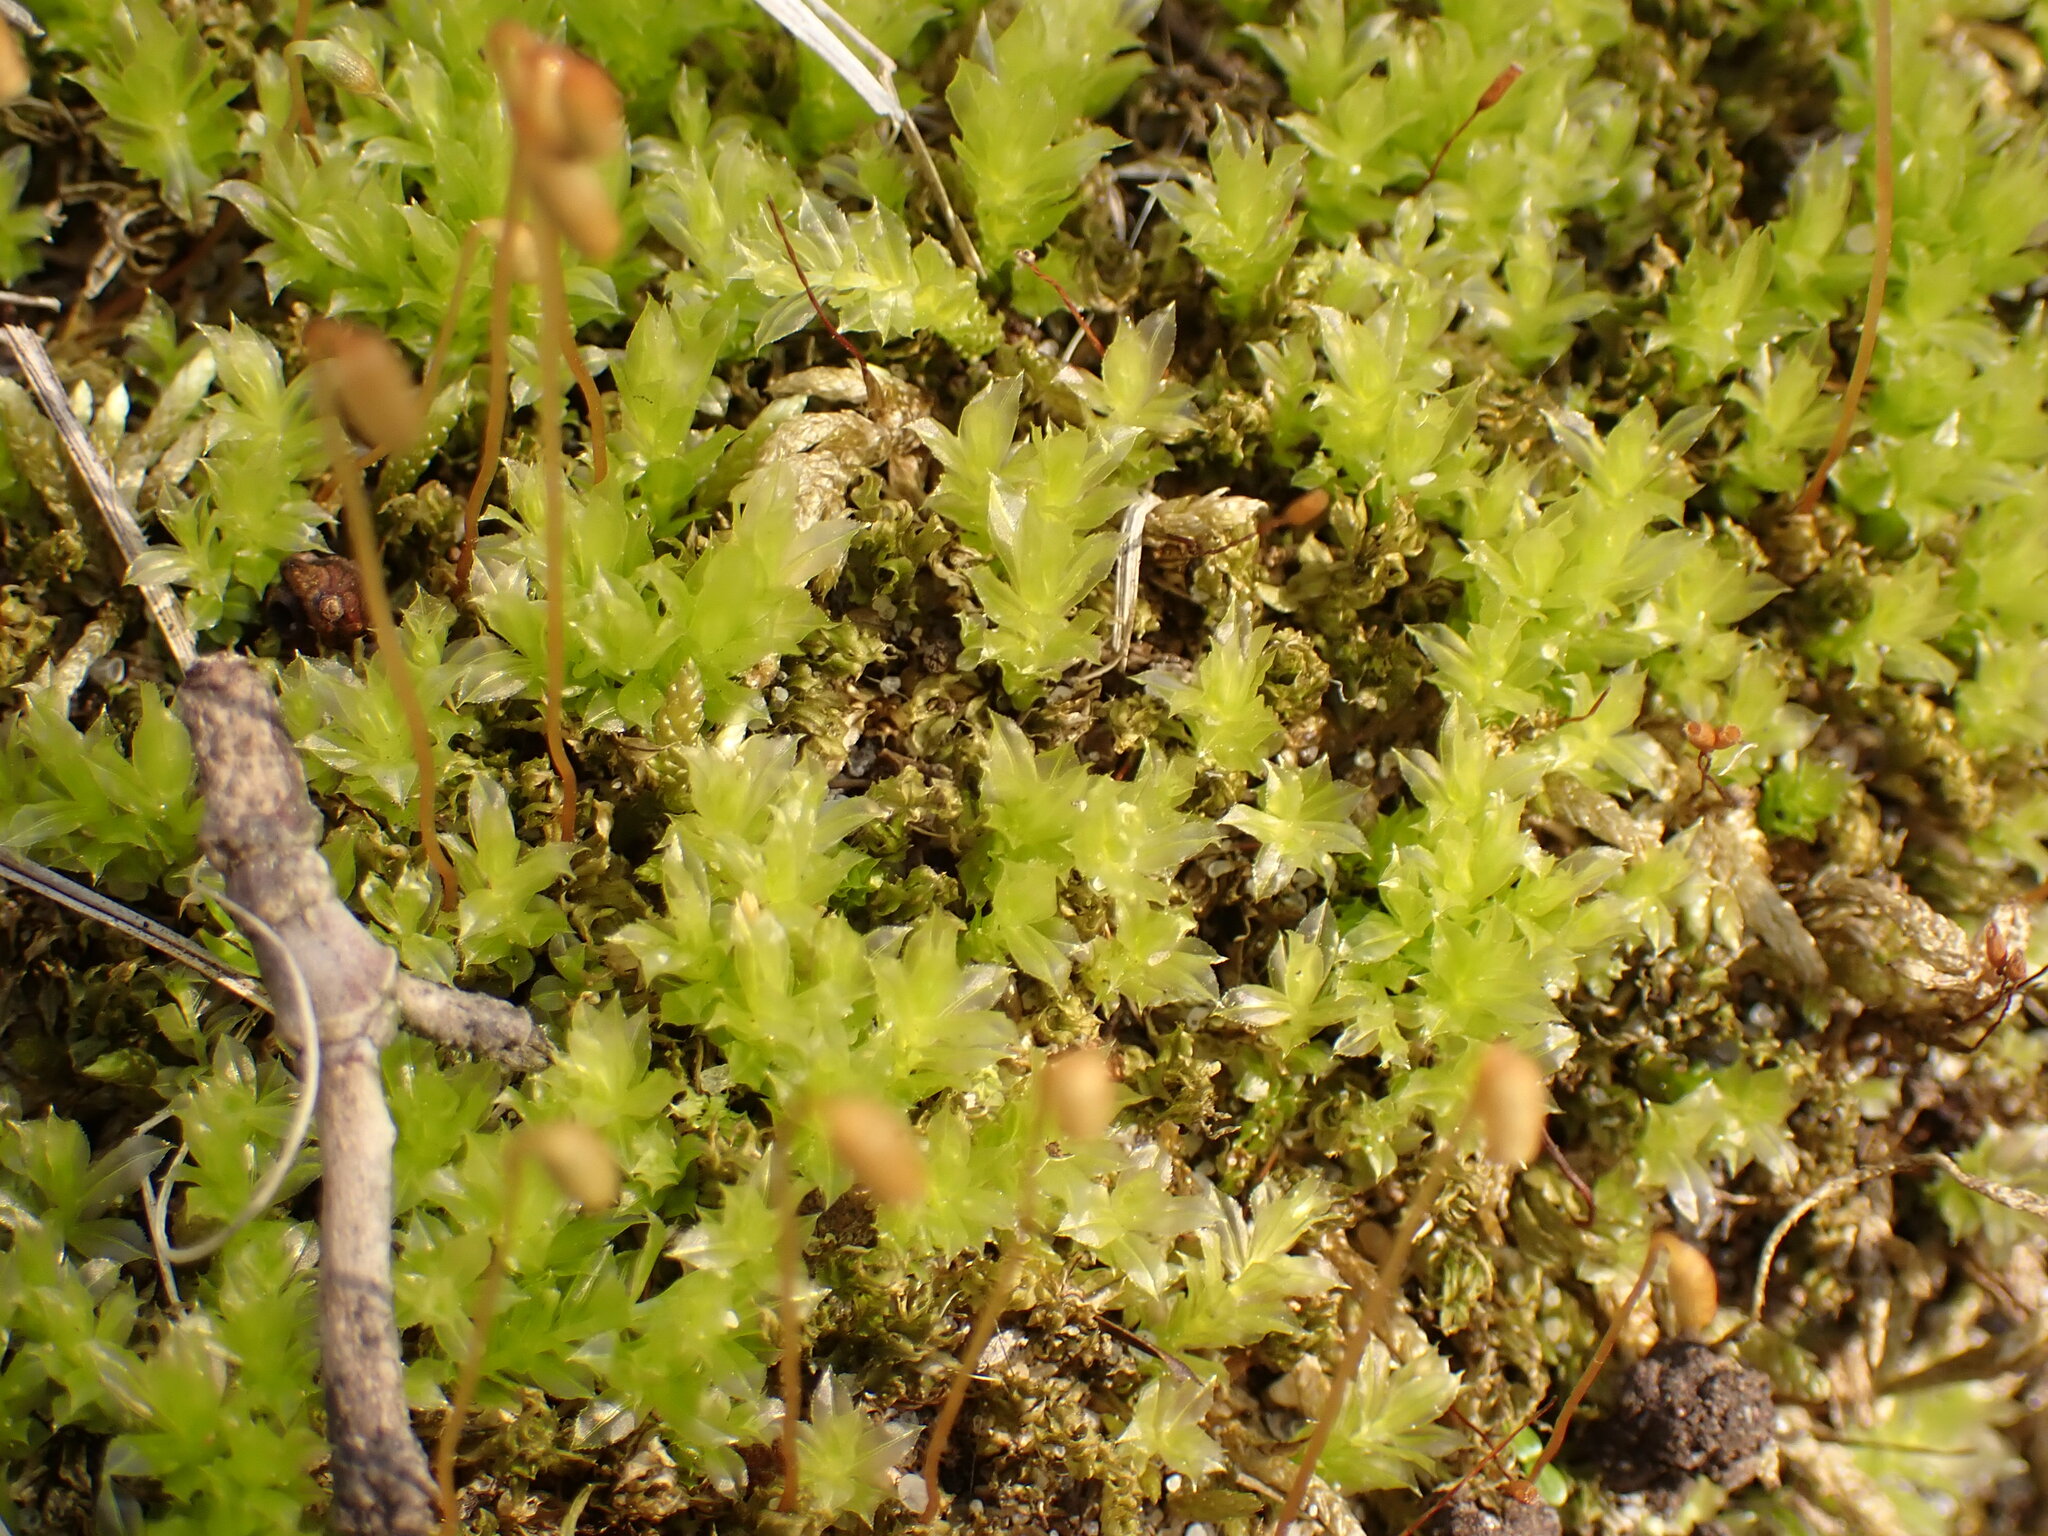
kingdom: Plantae
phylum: Bryophyta
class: Bryopsida
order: Bryales
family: Mniaceae
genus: Plagiomnium
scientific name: Plagiomnium cuspidatum
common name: Woodsy leafy moss
